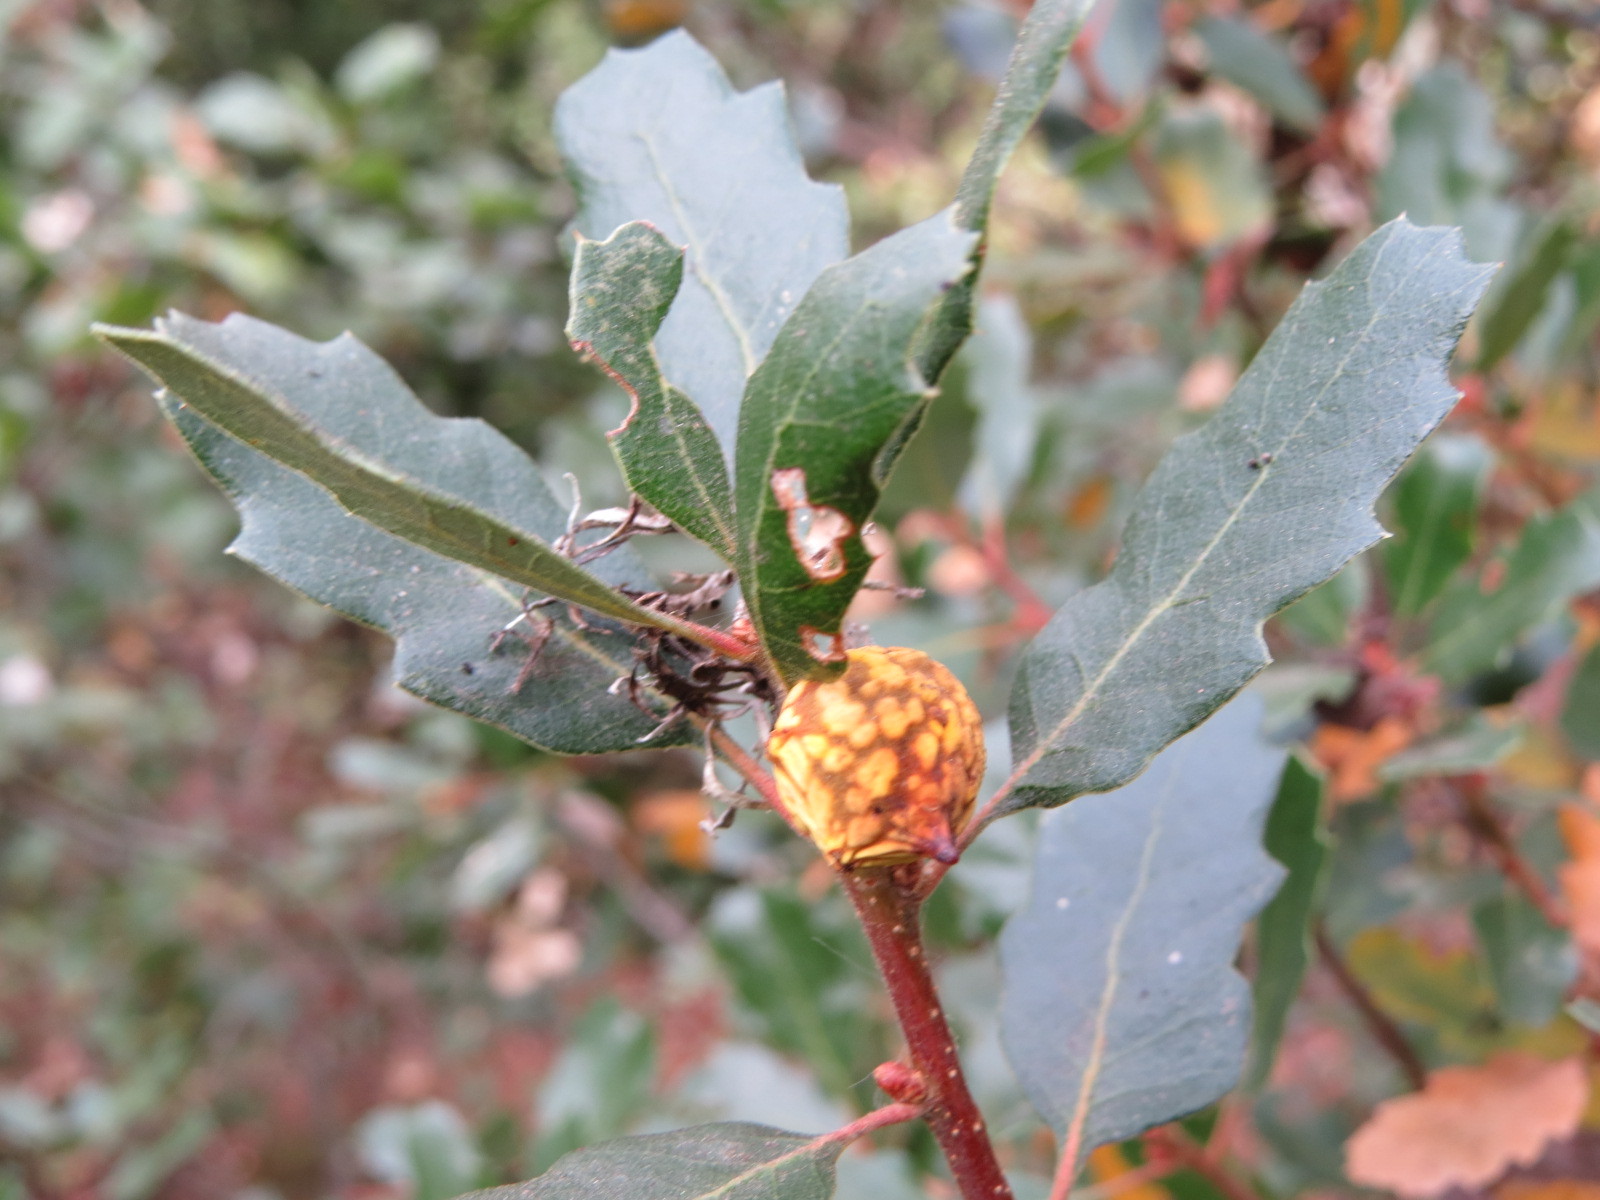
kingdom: Animalia
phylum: Arthropoda
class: Insecta
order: Hymenoptera
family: Cynipidae
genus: Burnettweldia
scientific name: Burnettweldia
